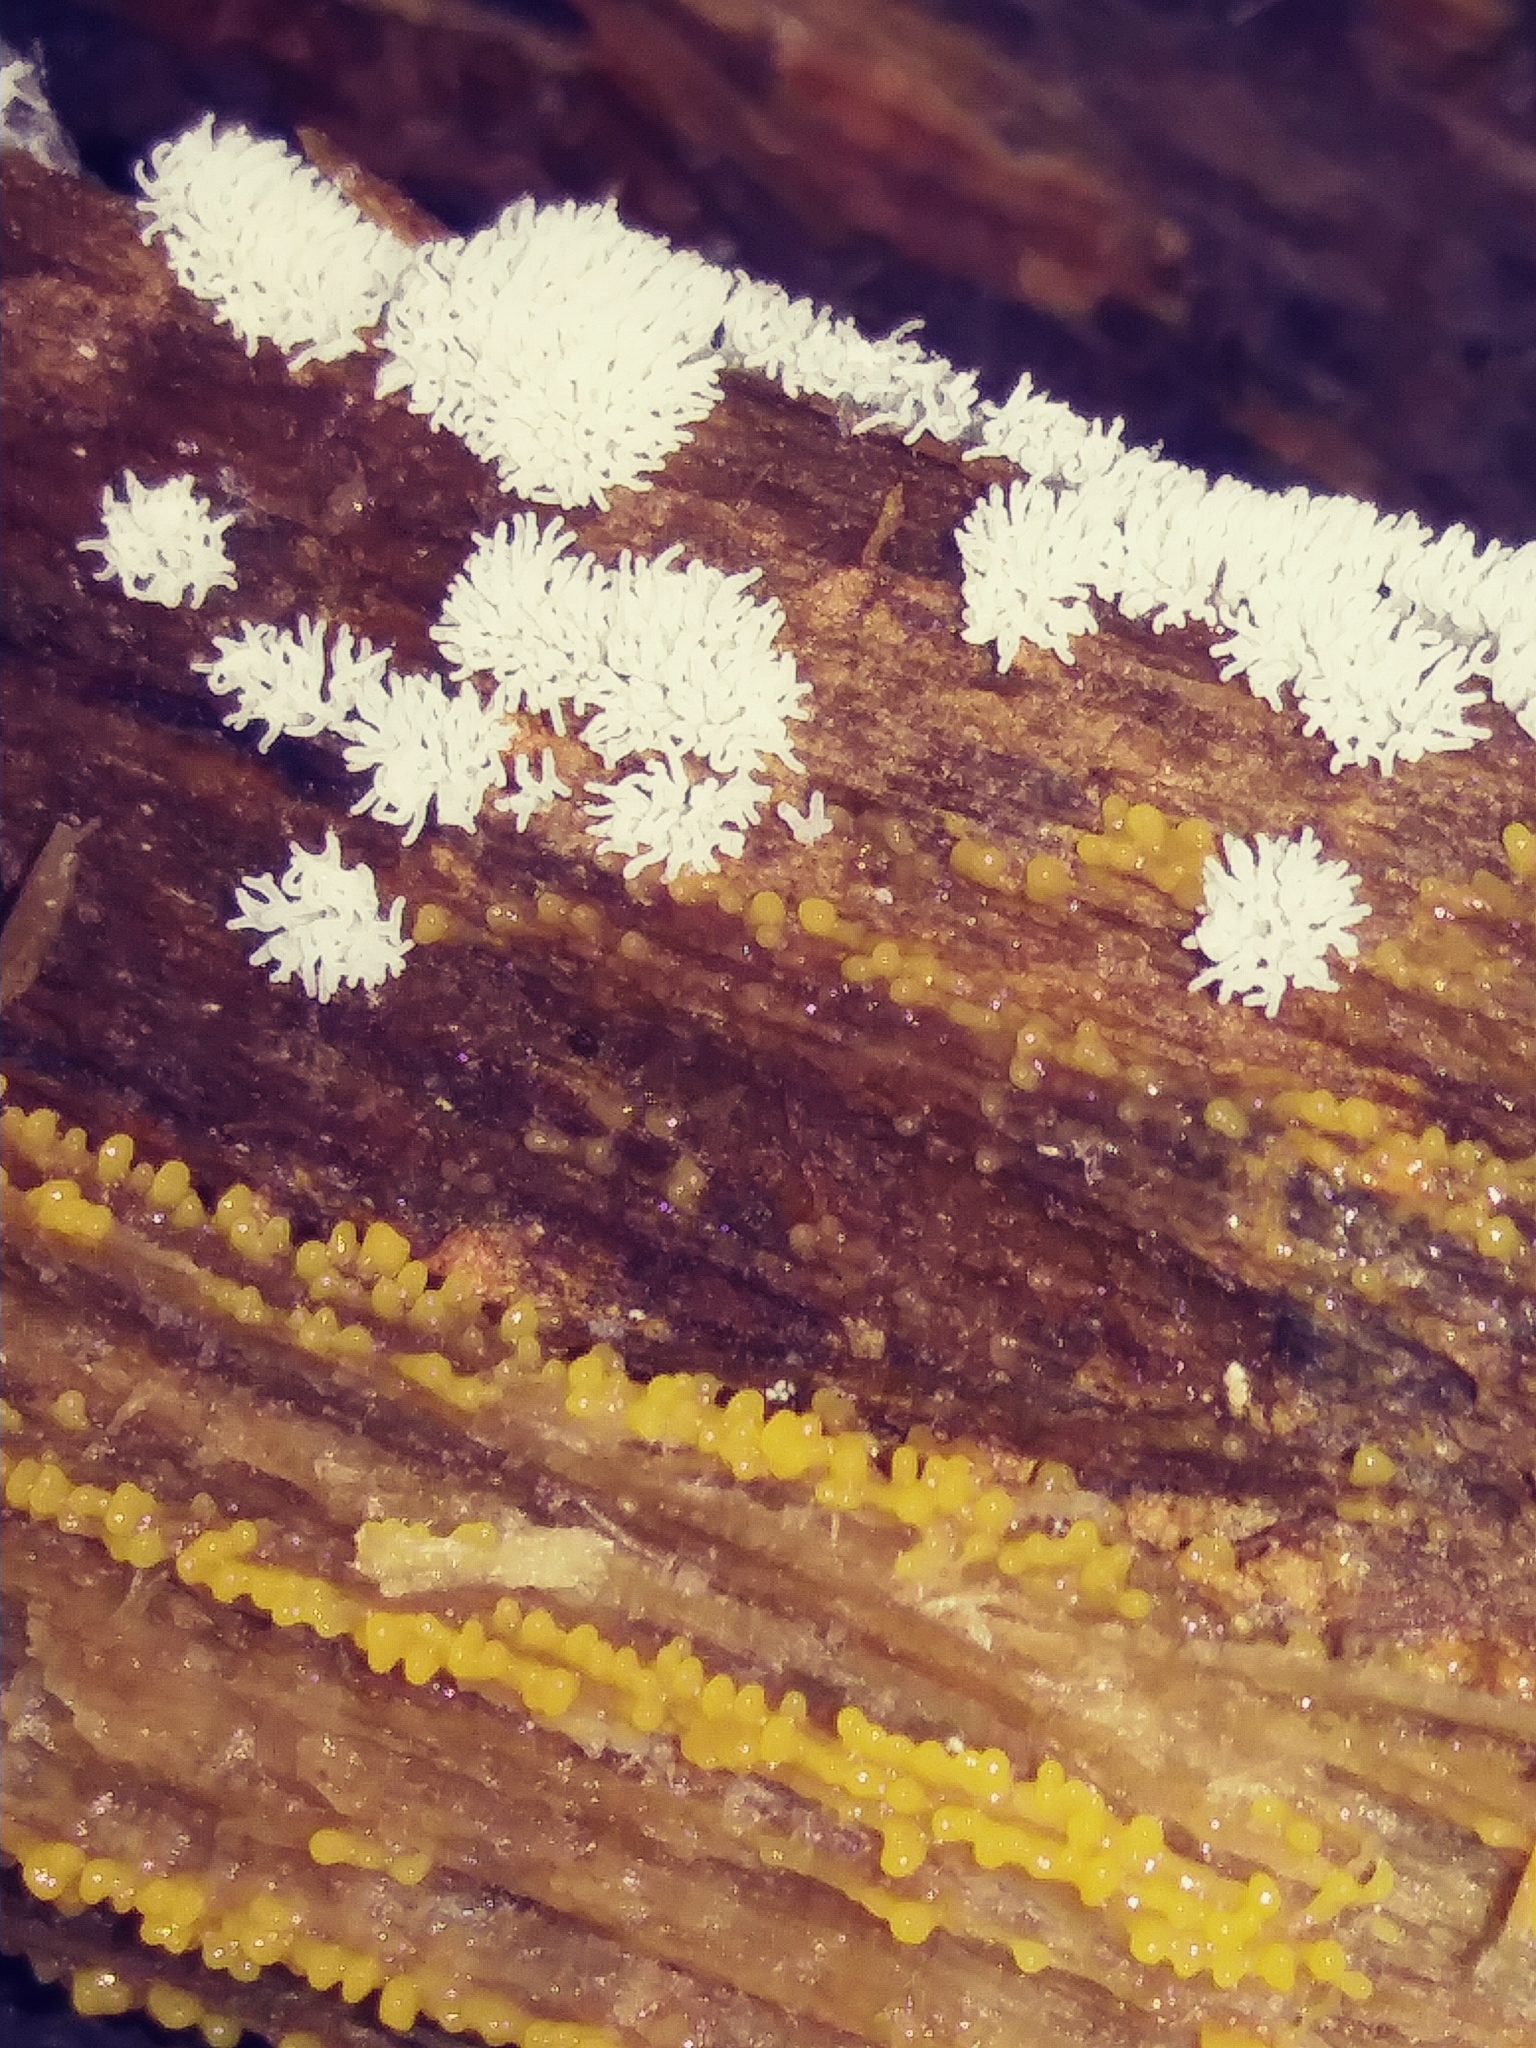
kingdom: Protozoa
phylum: Mycetozoa
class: Protosteliomycetes
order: Ceratiomyxales
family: Ceratiomyxaceae
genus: Ceratiomyxa
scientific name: Ceratiomyxa fruticulosa
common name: Honeycomb coral slime mold
